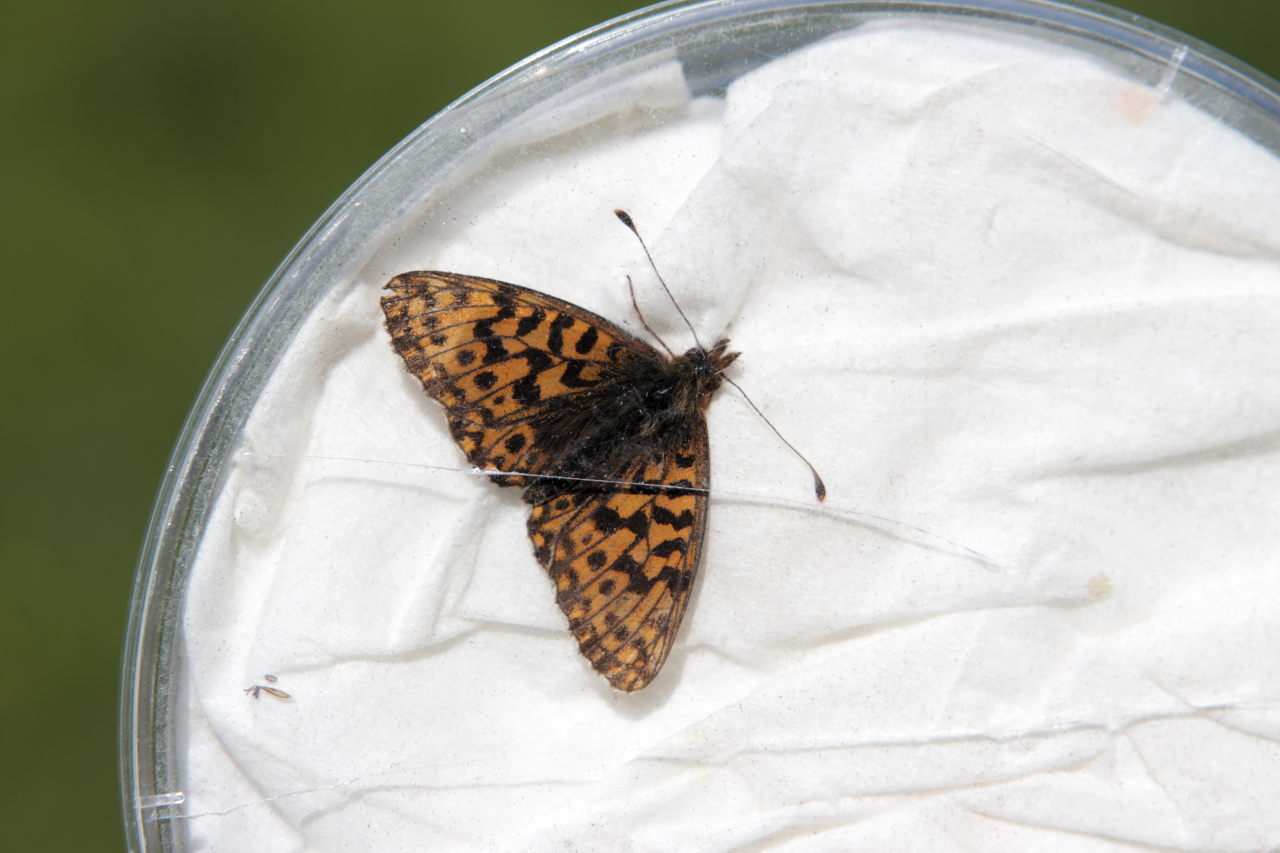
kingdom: Animalia
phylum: Arthropoda
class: Insecta
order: Lepidoptera
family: Nymphalidae
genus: Boloria
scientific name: Boloria dia
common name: Weaver's fritillary
